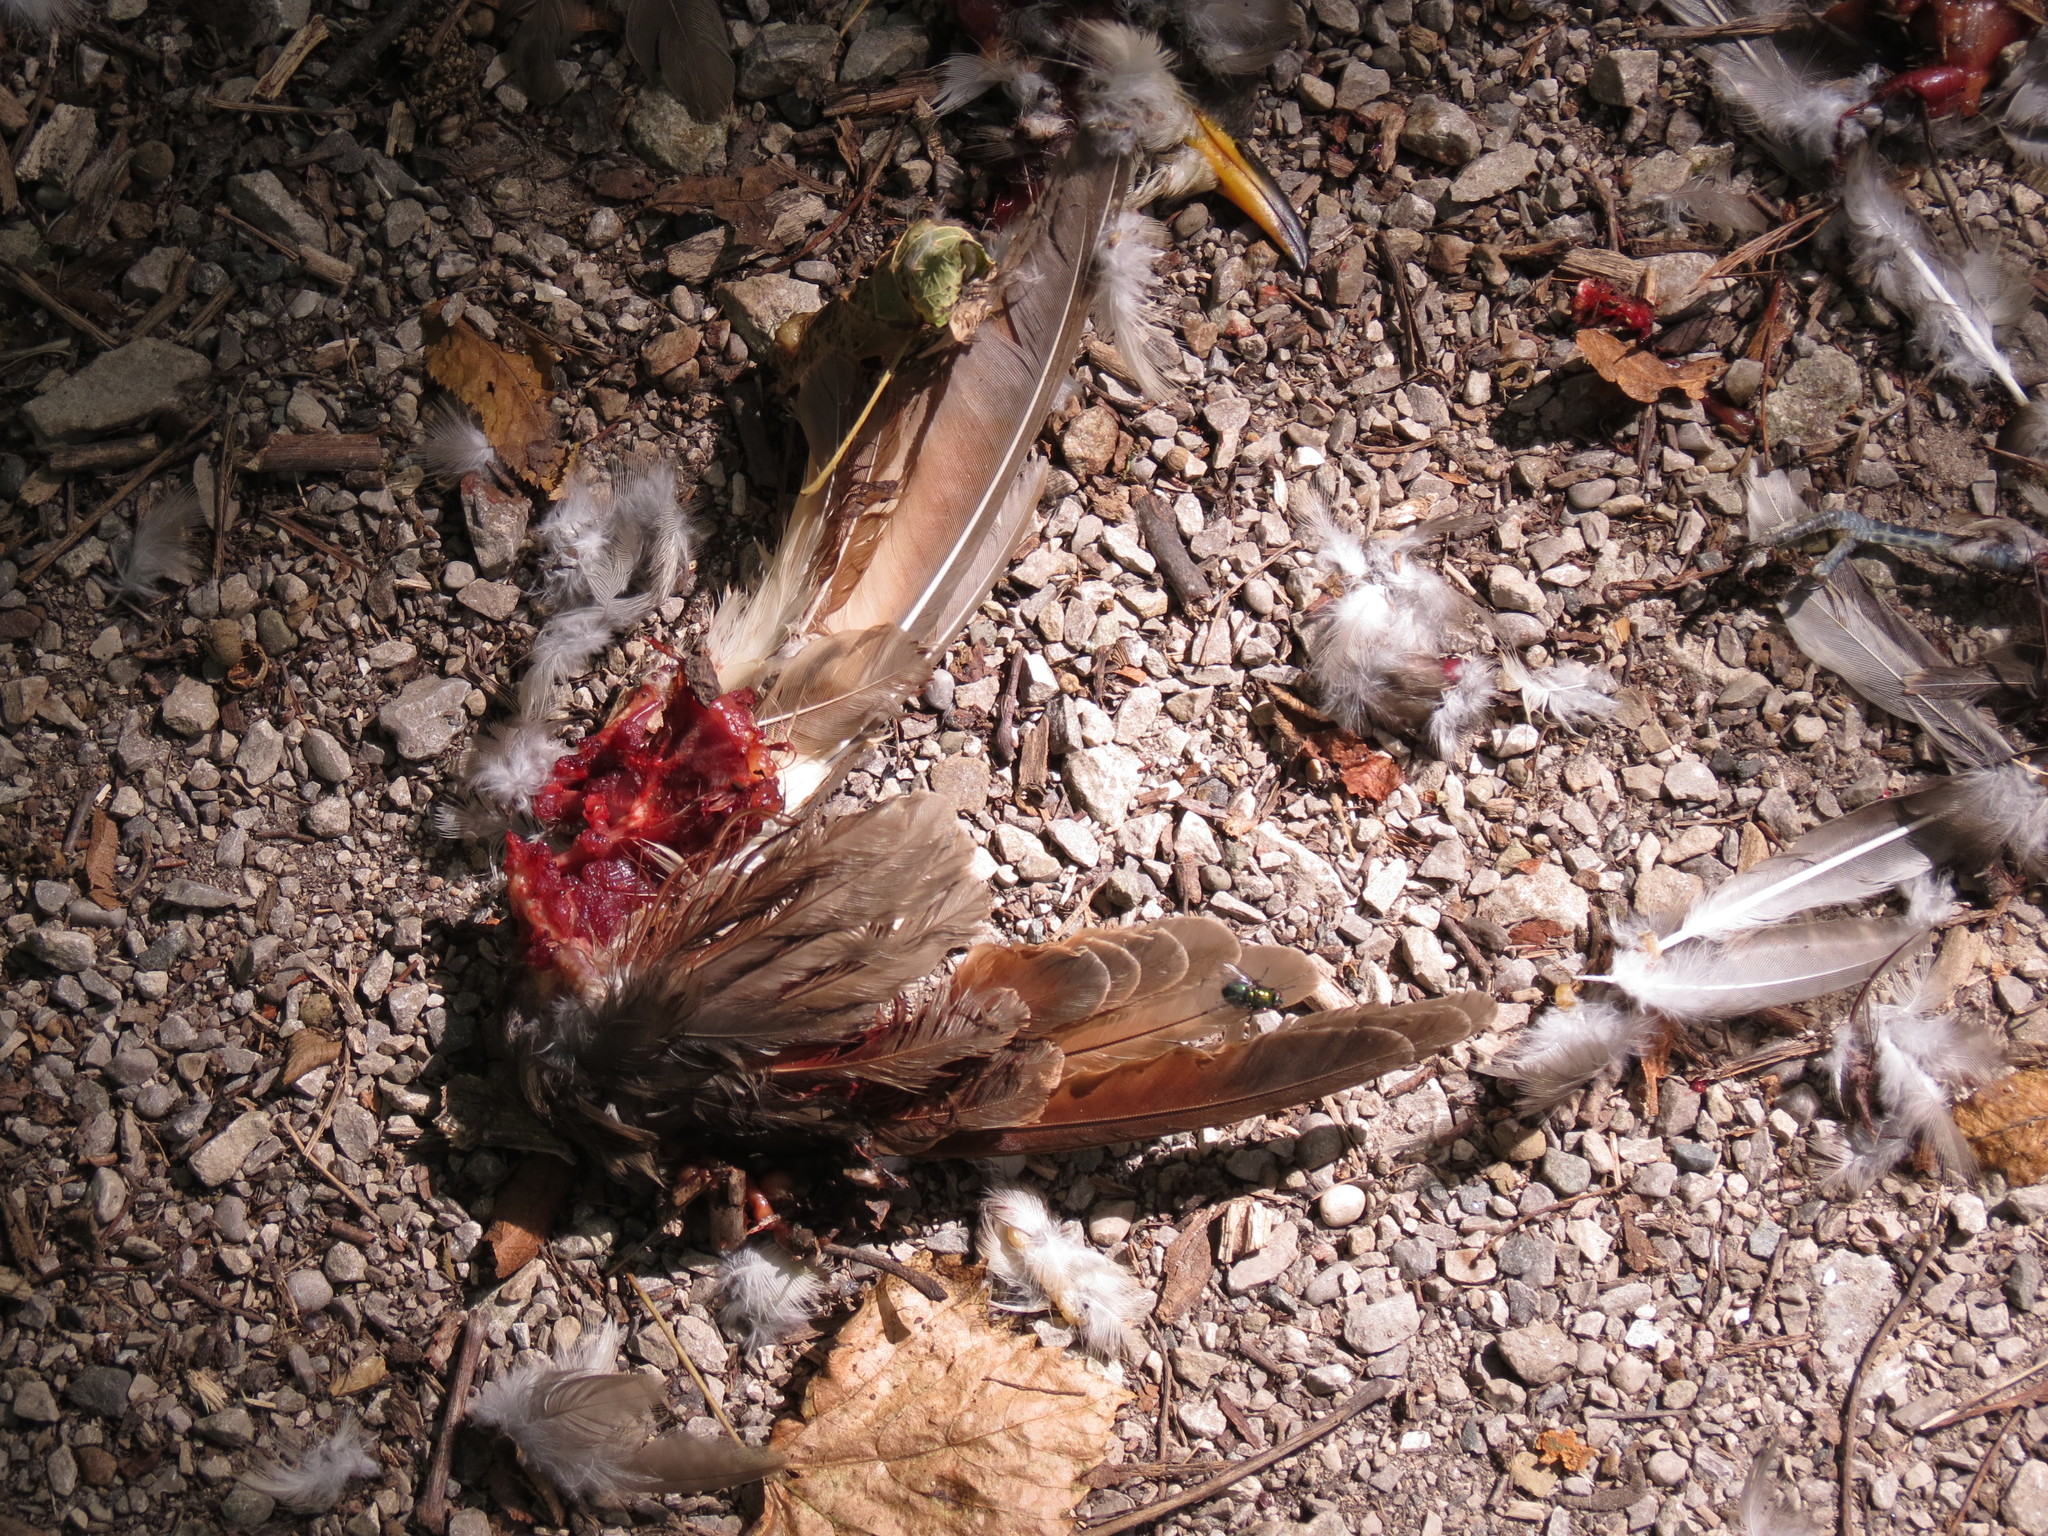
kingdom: Animalia
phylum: Chordata
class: Aves
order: Cuculiformes
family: Cuculidae
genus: Coccyzus
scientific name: Coccyzus americanus
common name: Yellow-billed cuckoo
